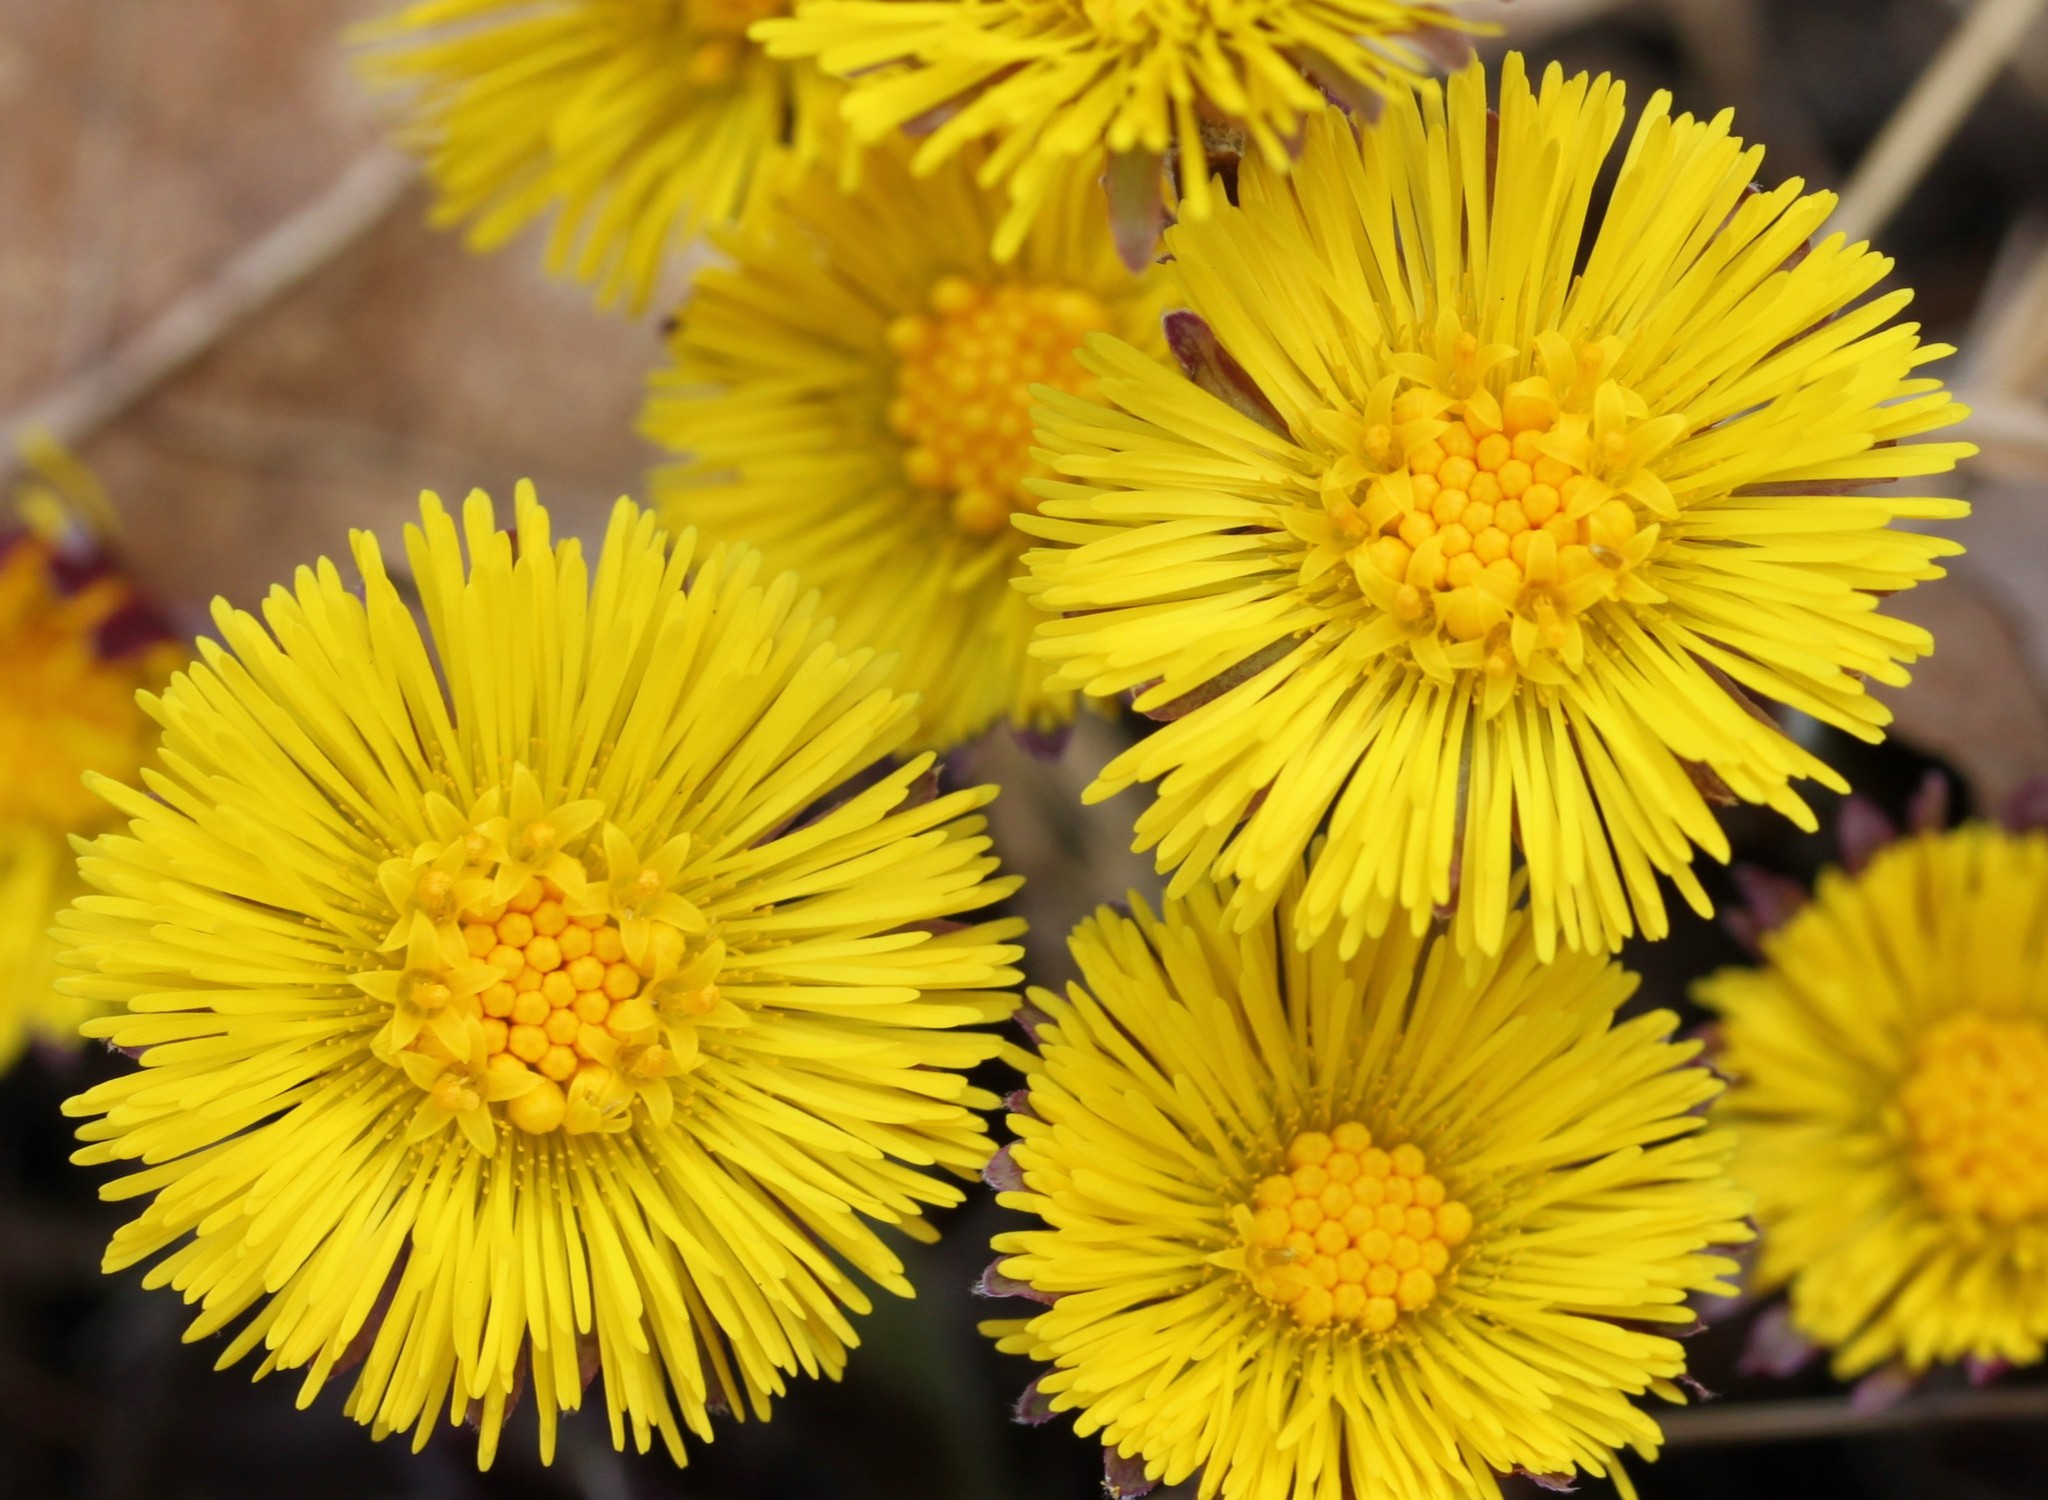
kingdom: Plantae
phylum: Tracheophyta
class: Magnoliopsida
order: Asterales
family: Asteraceae
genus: Tussilago
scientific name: Tussilago farfara
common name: Coltsfoot
